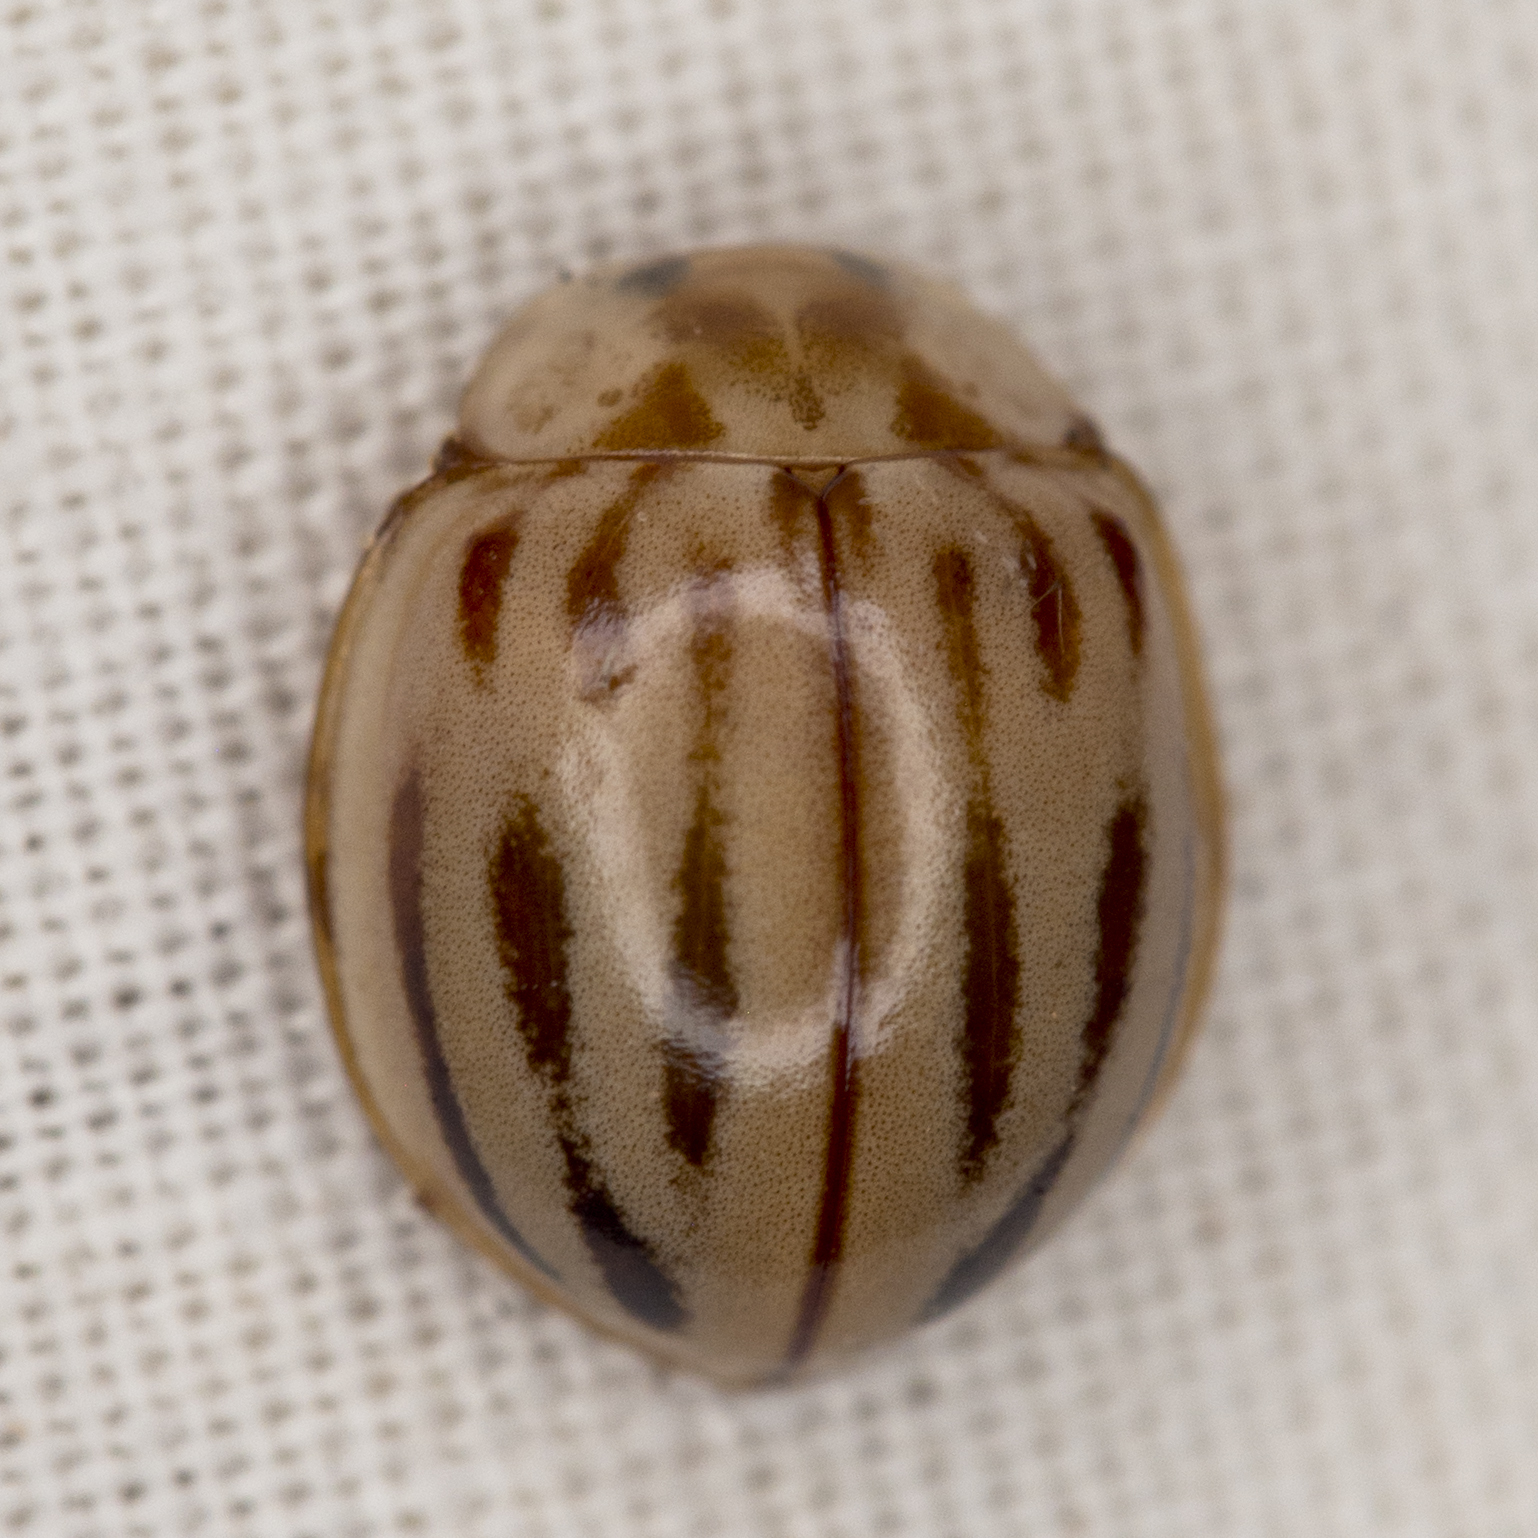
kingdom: Animalia
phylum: Arthropoda
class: Insecta
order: Coleoptera
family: Coccinellidae
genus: Myzia
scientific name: Myzia interrupta
